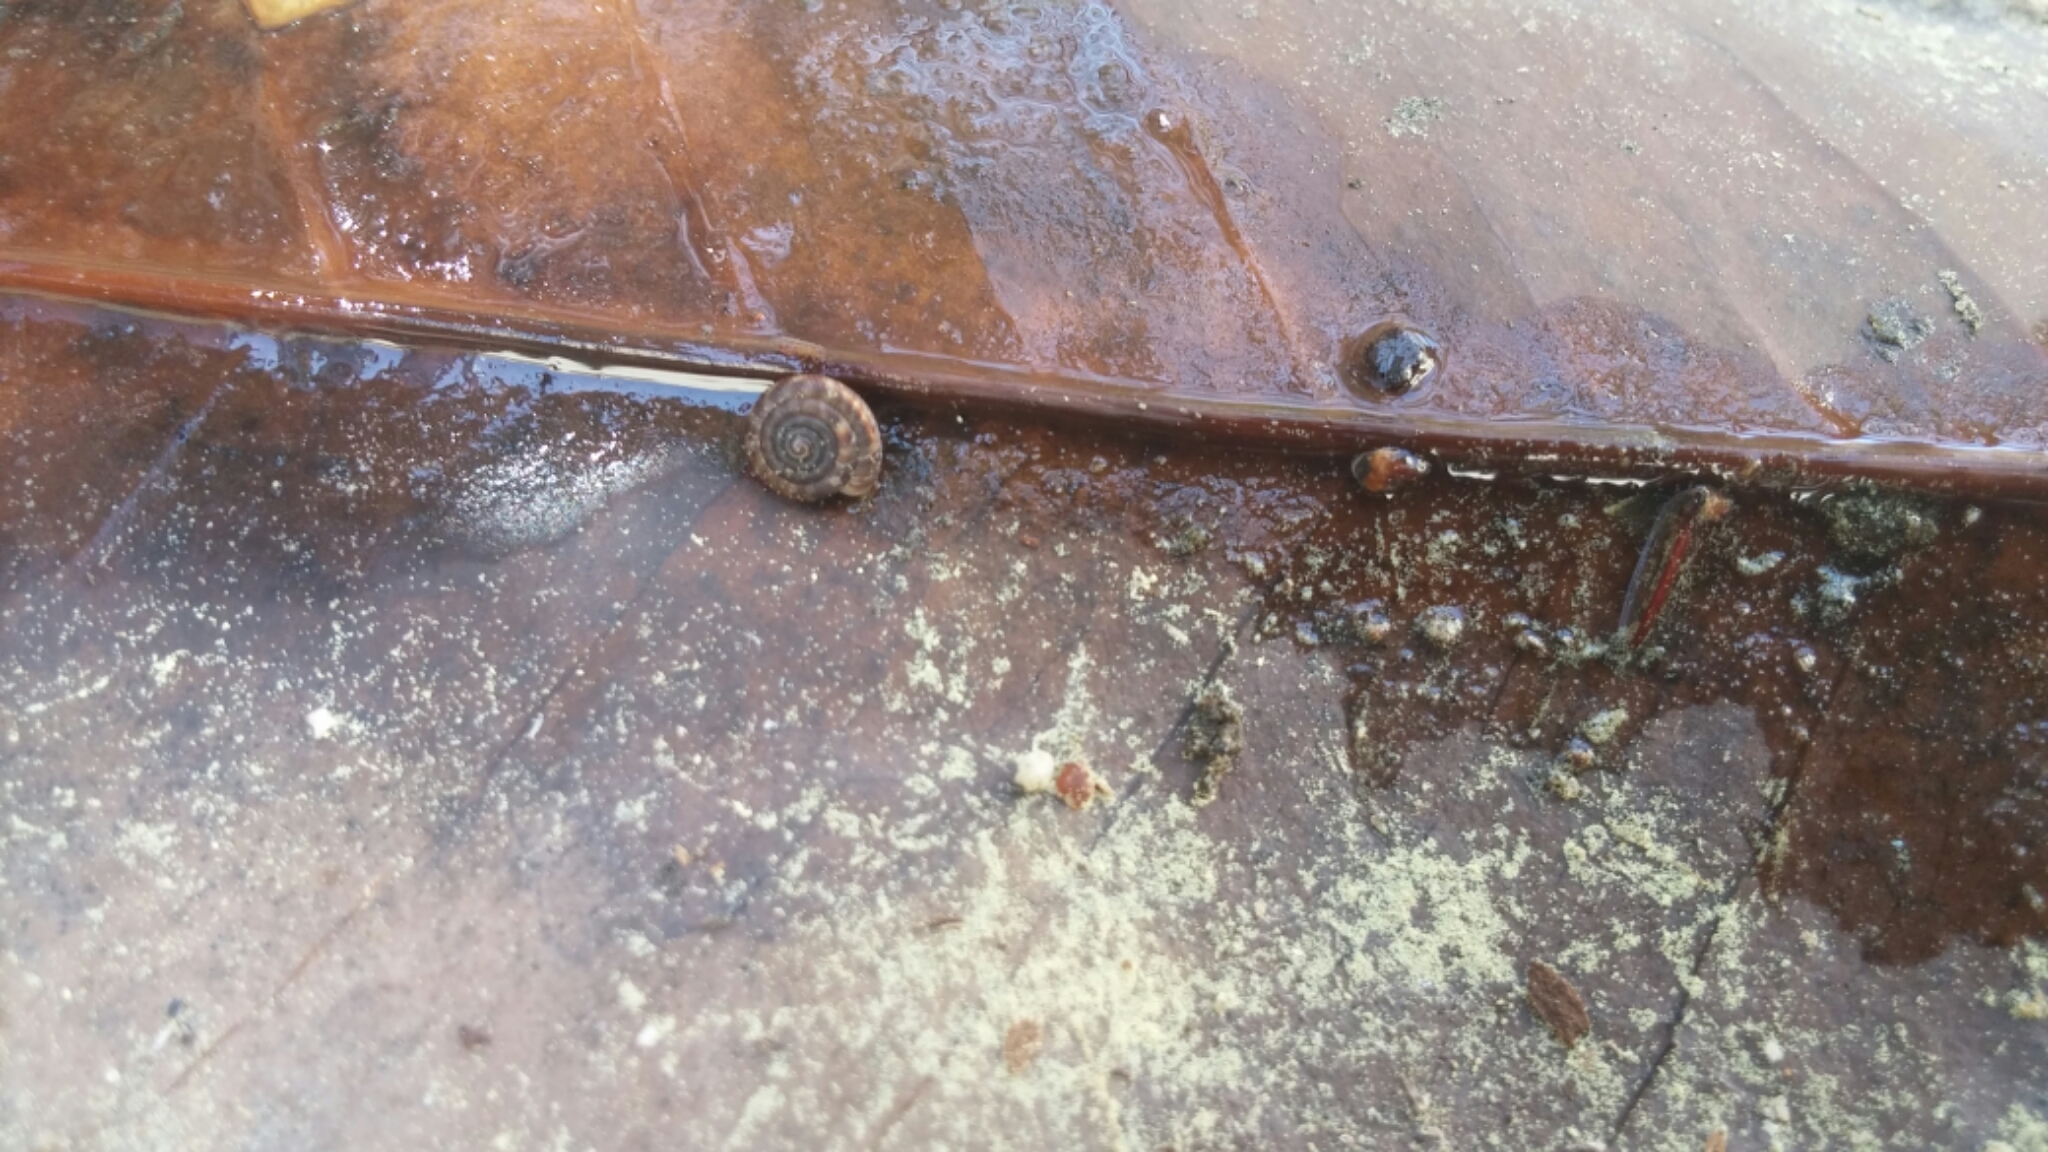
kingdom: Animalia
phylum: Mollusca
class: Gastropoda
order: Stylommatophora
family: Discidae
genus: Discus
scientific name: Discus rotundatus
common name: Rounded snail
